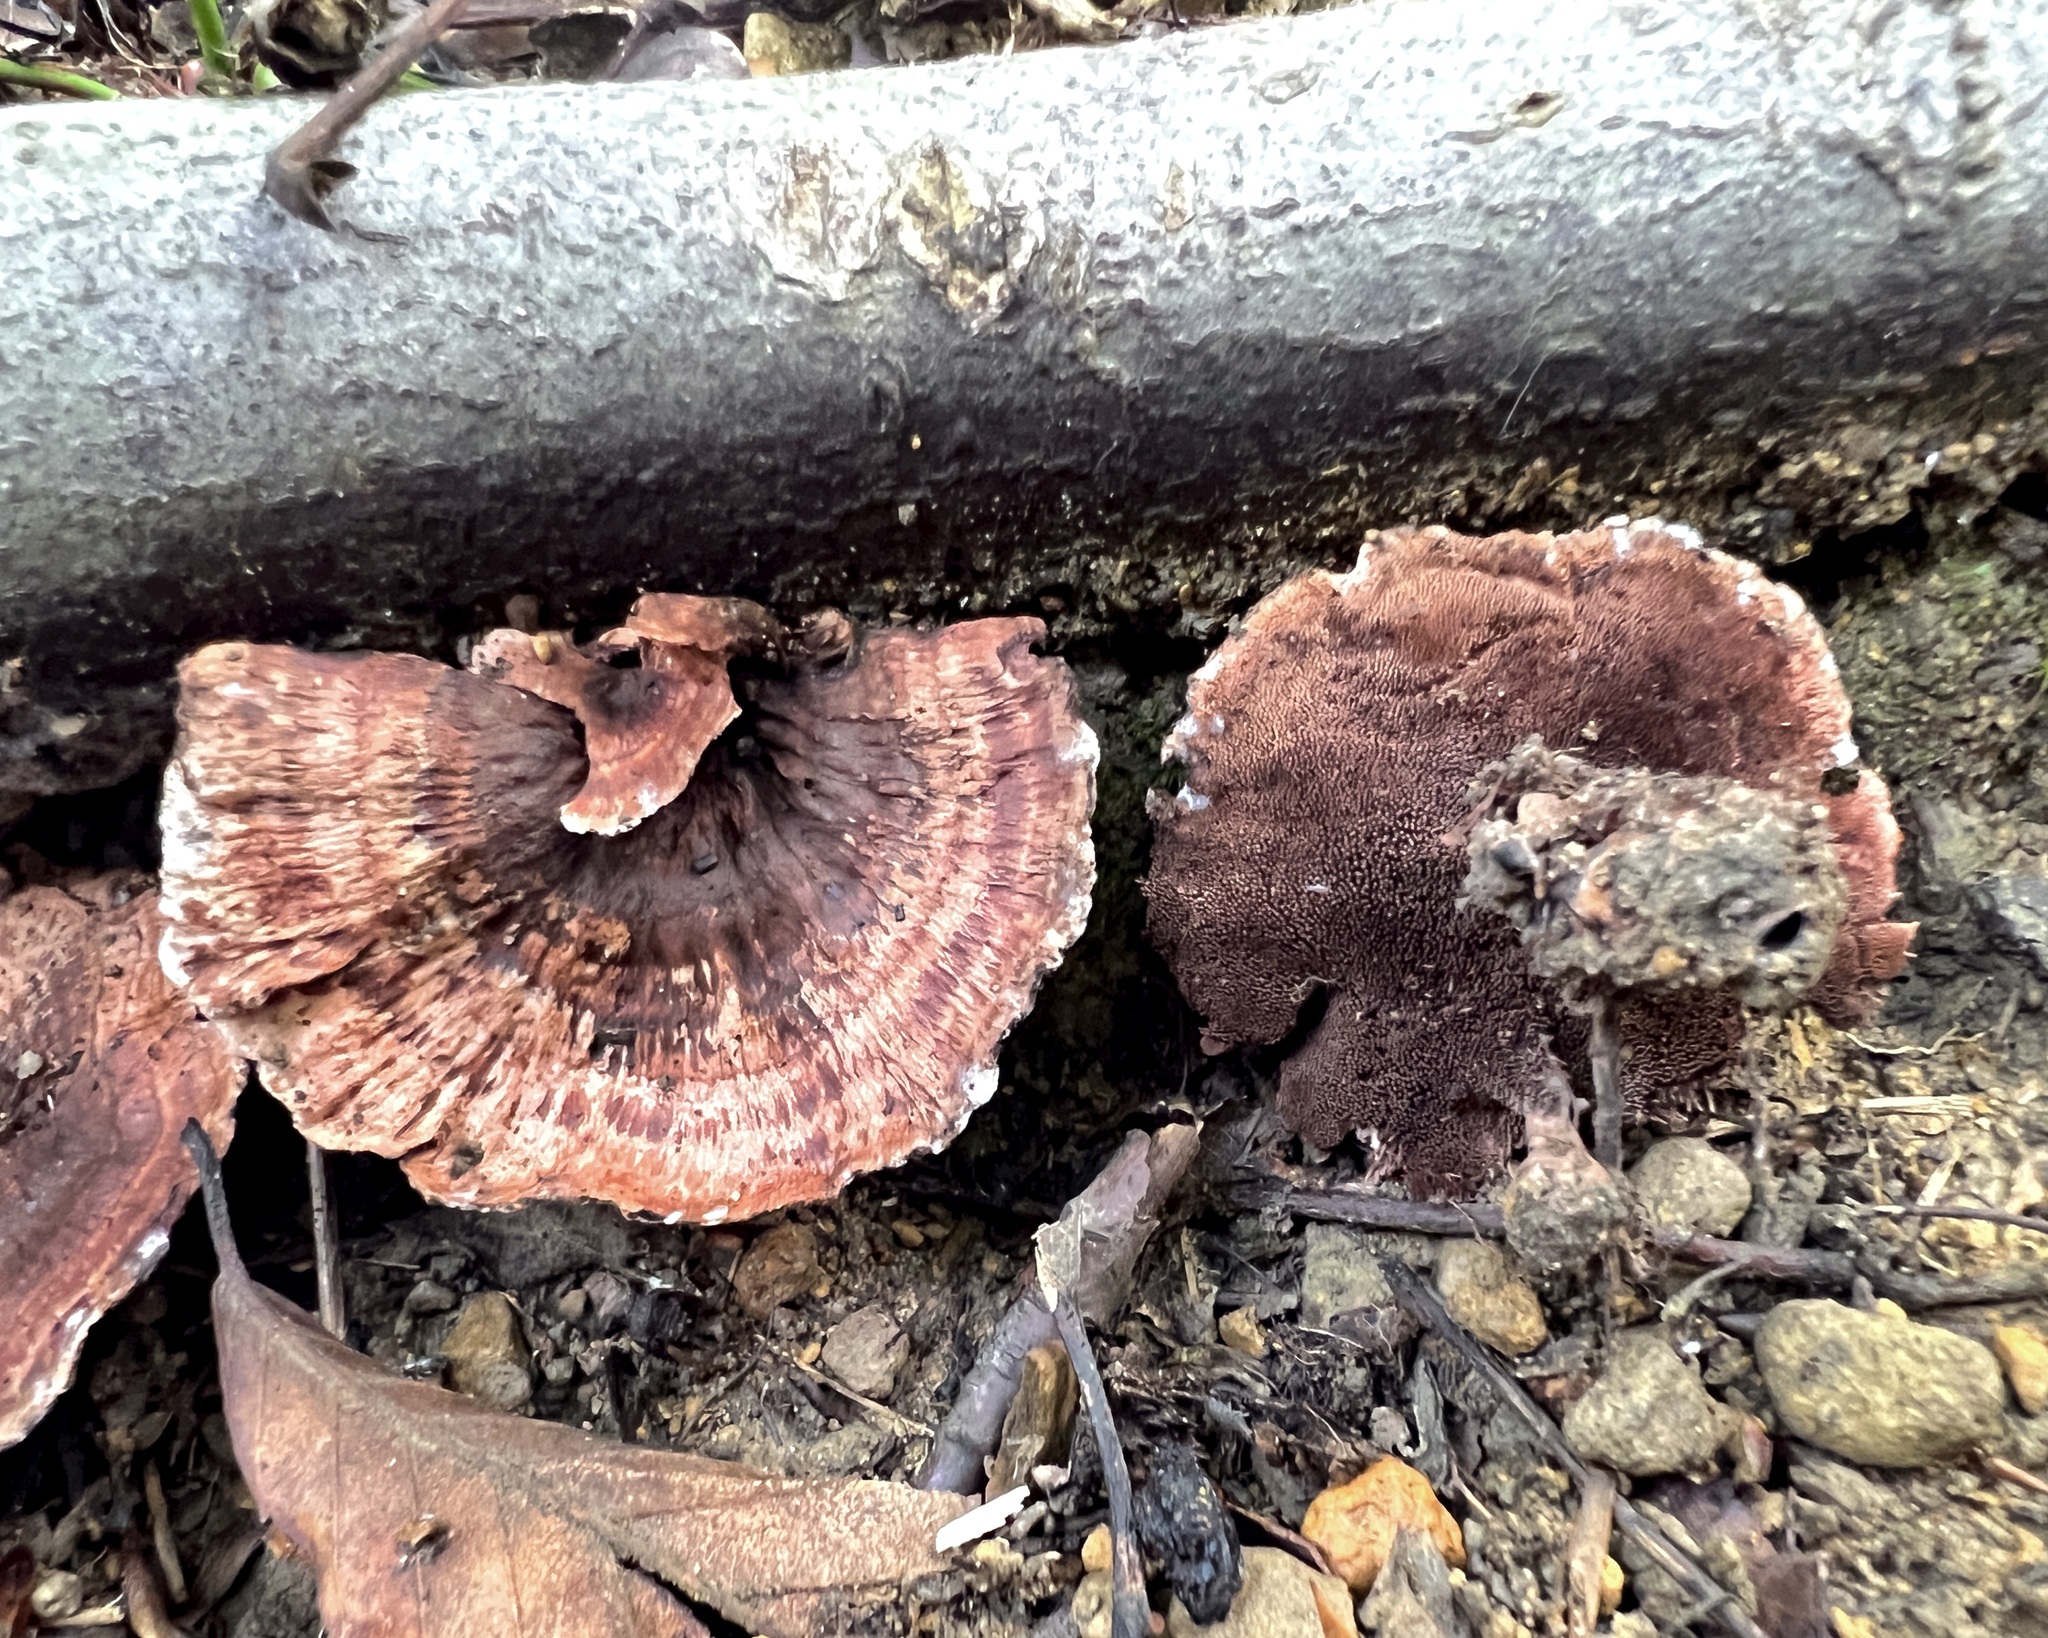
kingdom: Fungi
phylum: Basidiomycota
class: Agaricomycetes
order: Thelephorales
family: Bankeraceae
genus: Hydnellum
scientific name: Hydnellum concrescens
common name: Zoned tooth
